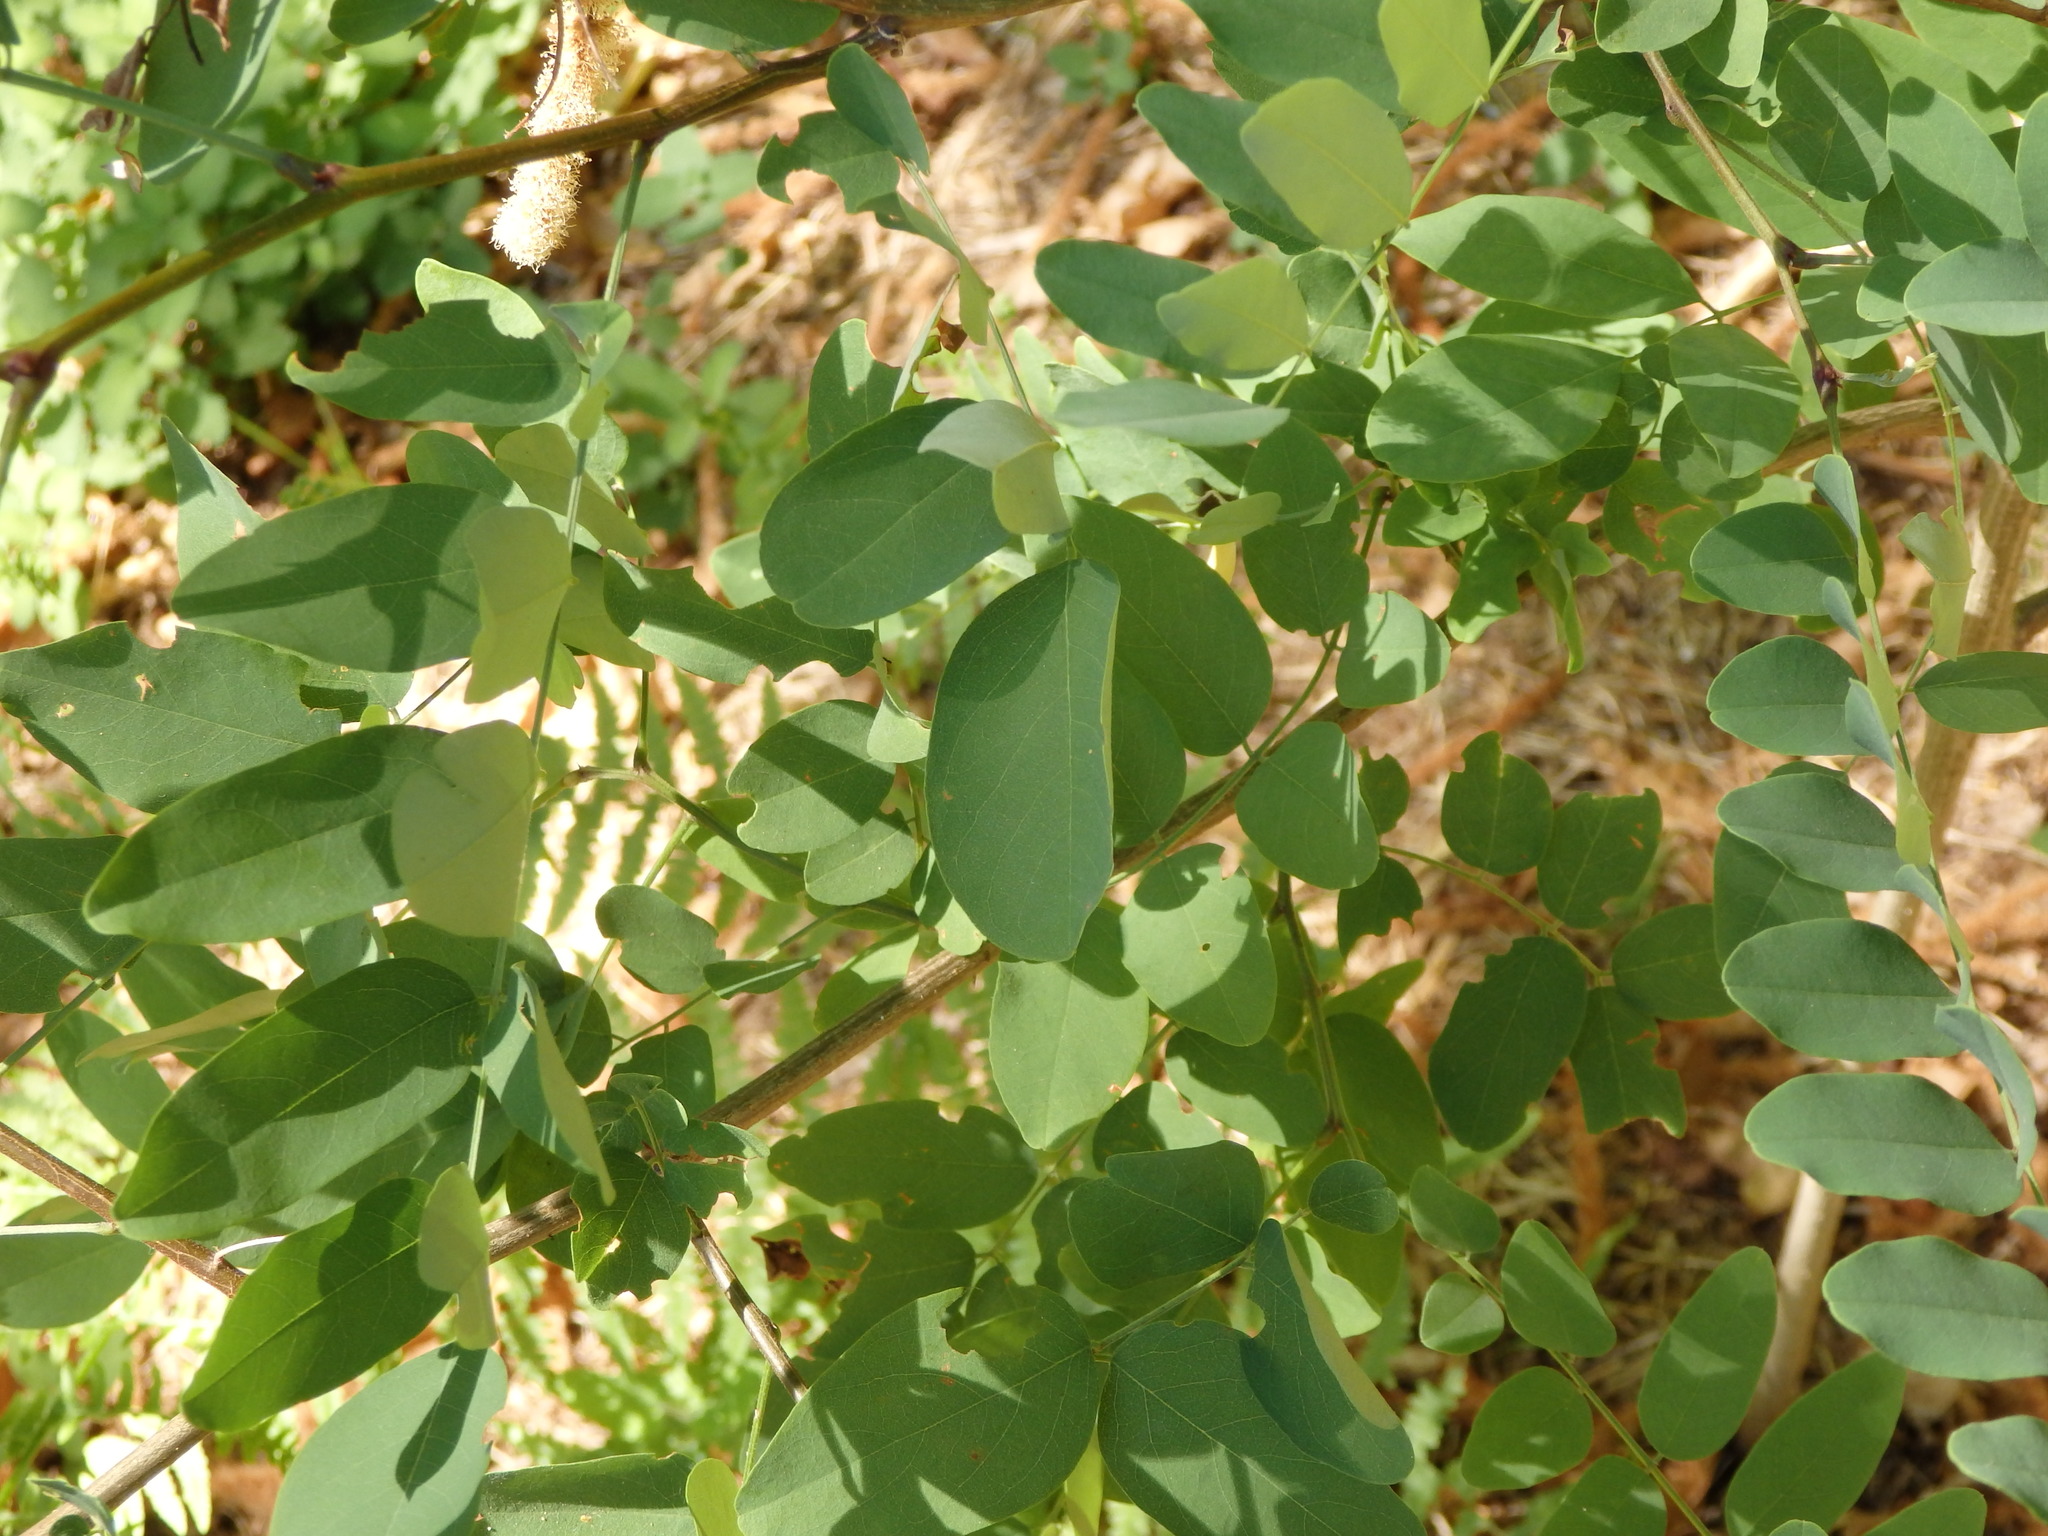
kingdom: Plantae
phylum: Tracheophyta
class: Magnoliopsida
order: Fabales
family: Fabaceae
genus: Robinia
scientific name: Robinia pseudoacacia
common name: Black locust
